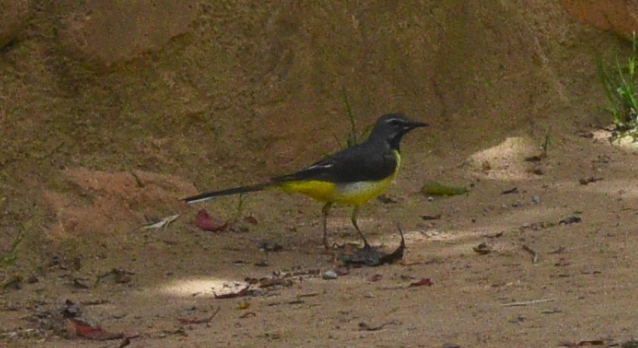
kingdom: Animalia
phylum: Chordata
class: Aves
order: Passeriformes
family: Motacillidae
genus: Motacilla
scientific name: Motacilla cinerea
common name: Grey wagtail
